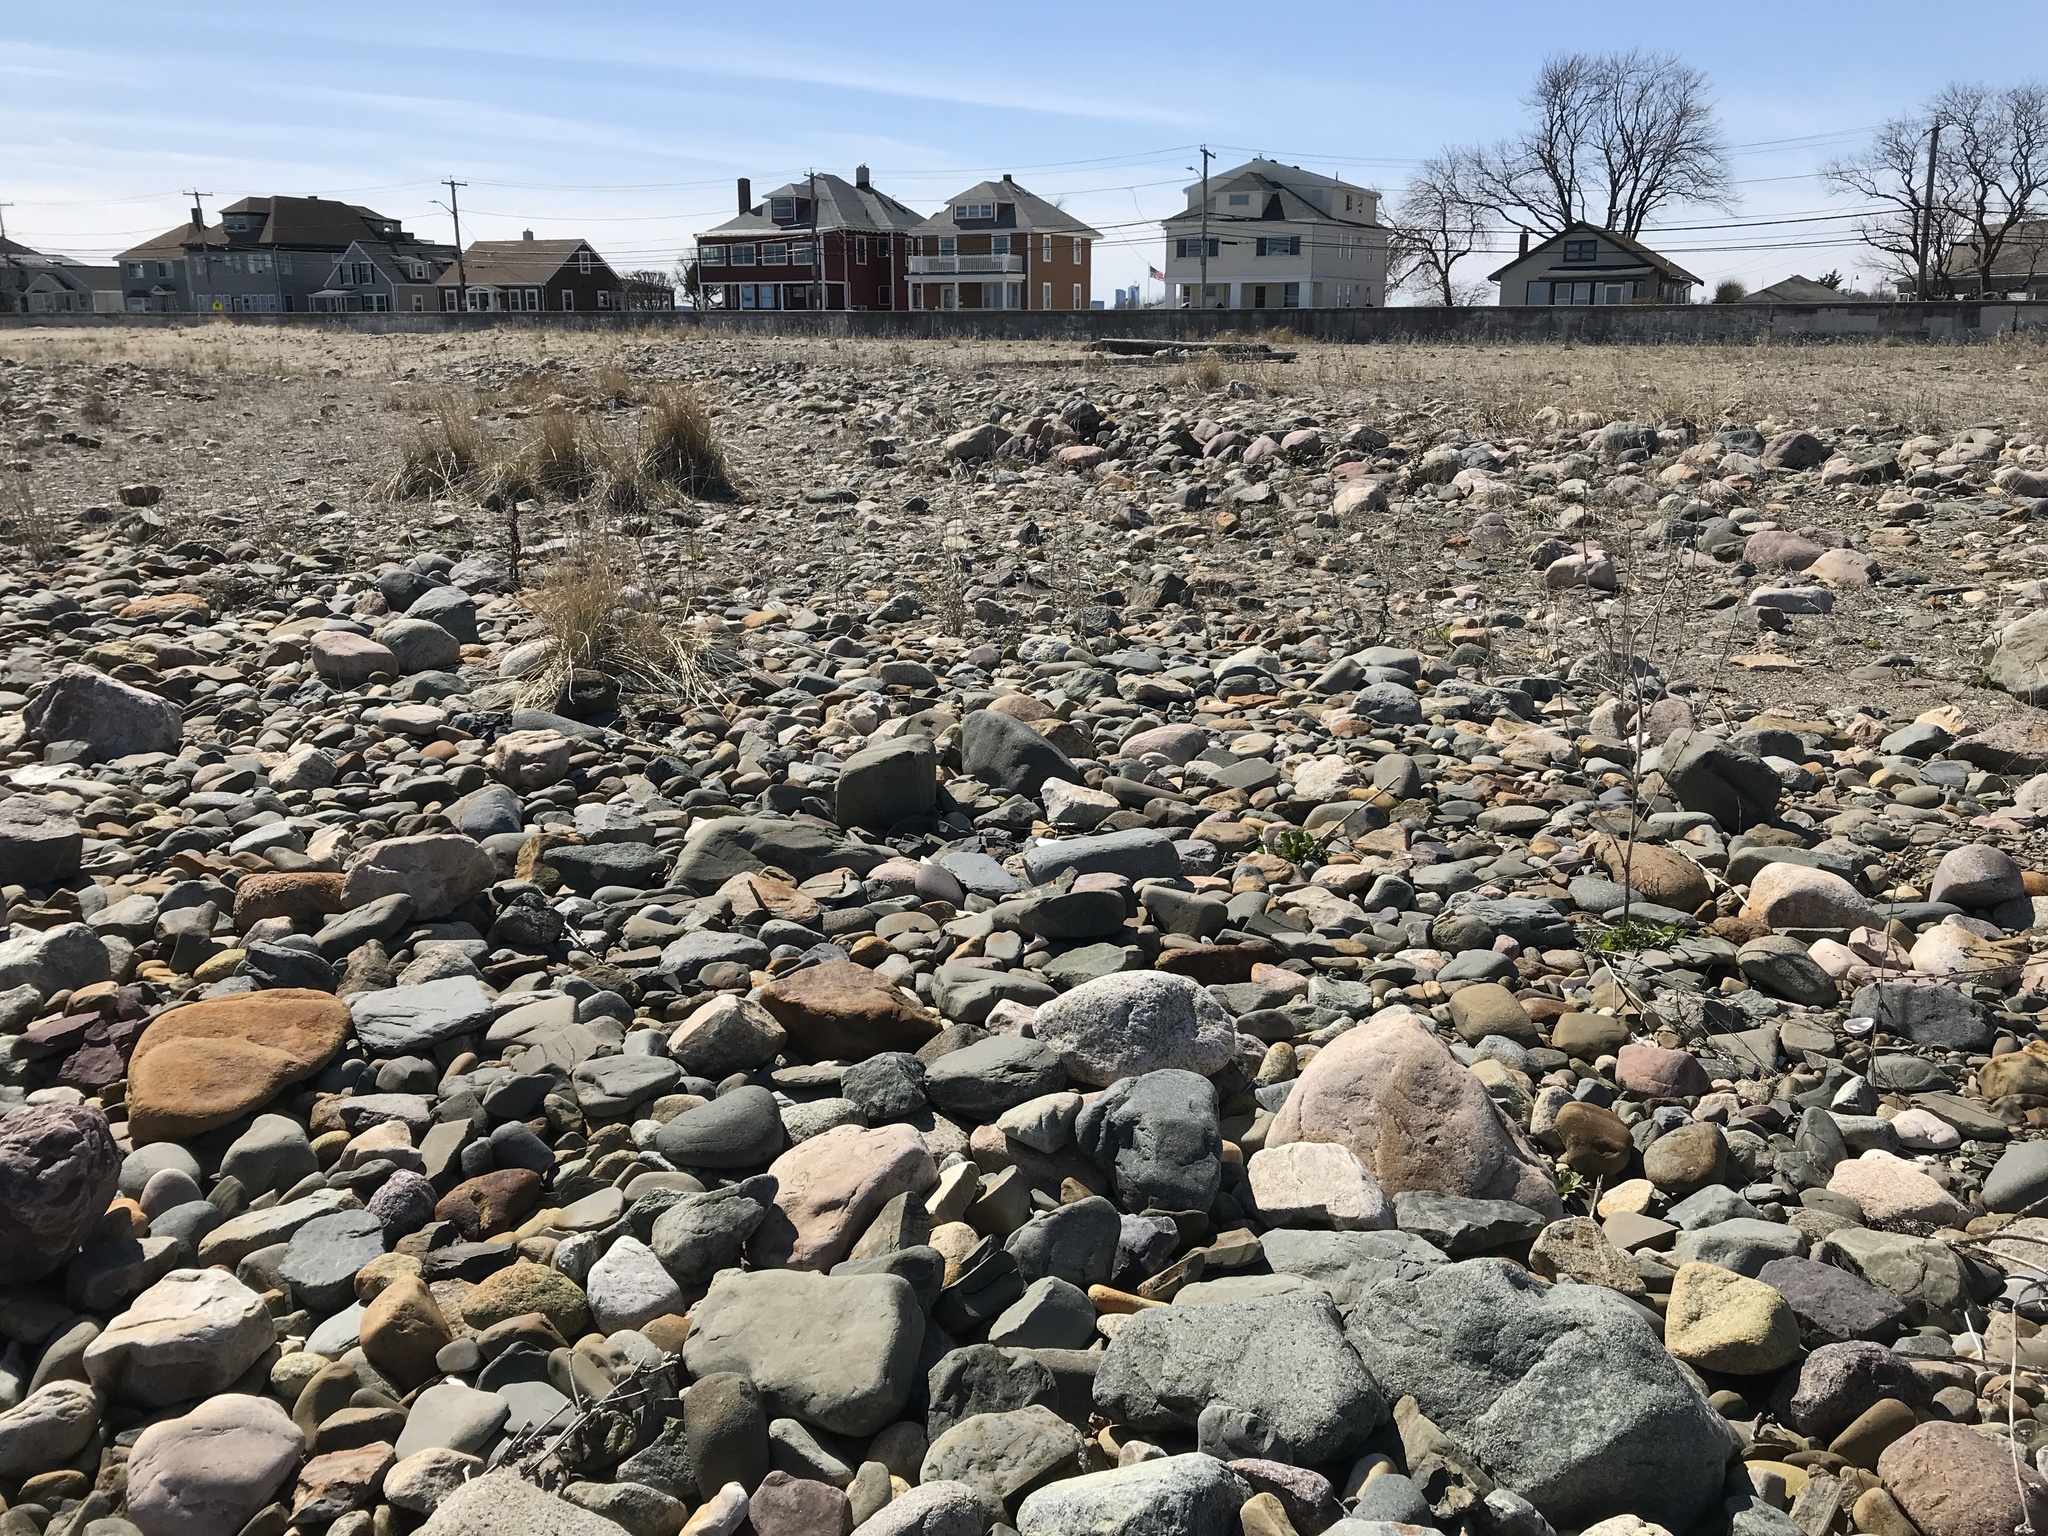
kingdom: Animalia
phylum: Chordata
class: Aves
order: Charadriiformes
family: Charadriidae
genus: Charadrius
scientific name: Charadrius vociferus
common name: Killdeer
